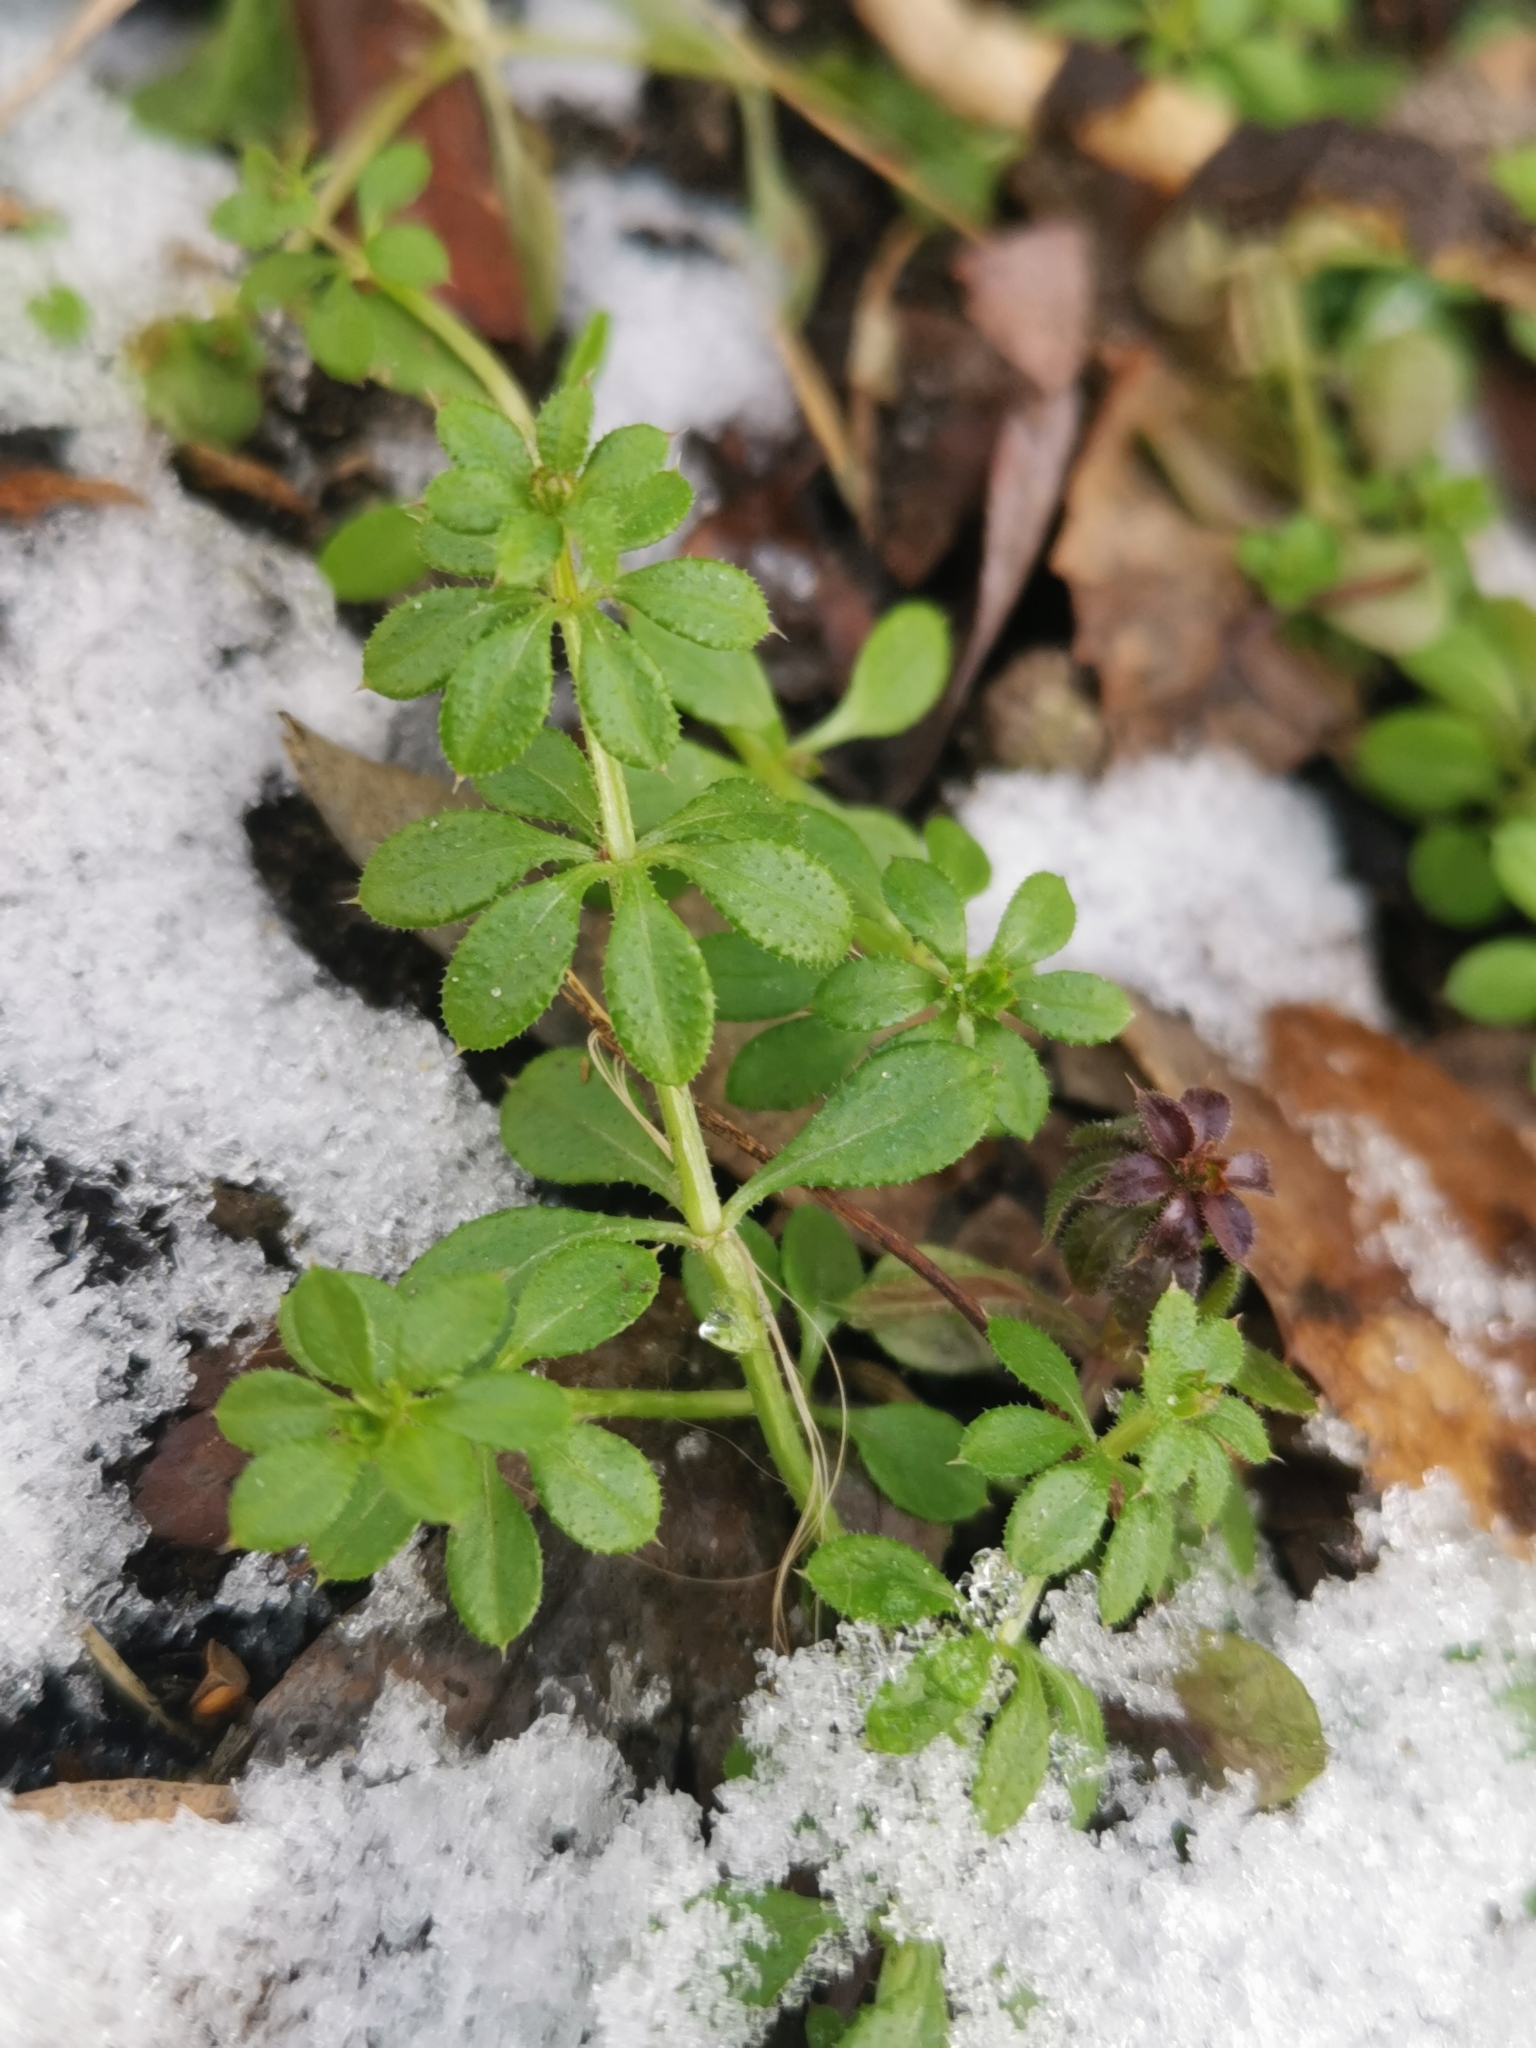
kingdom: Plantae
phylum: Tracheophyta
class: Magnoliopsida
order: Gentianales
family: Rubiaceae
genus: Galium
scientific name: Galium aparine
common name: Cleavers
